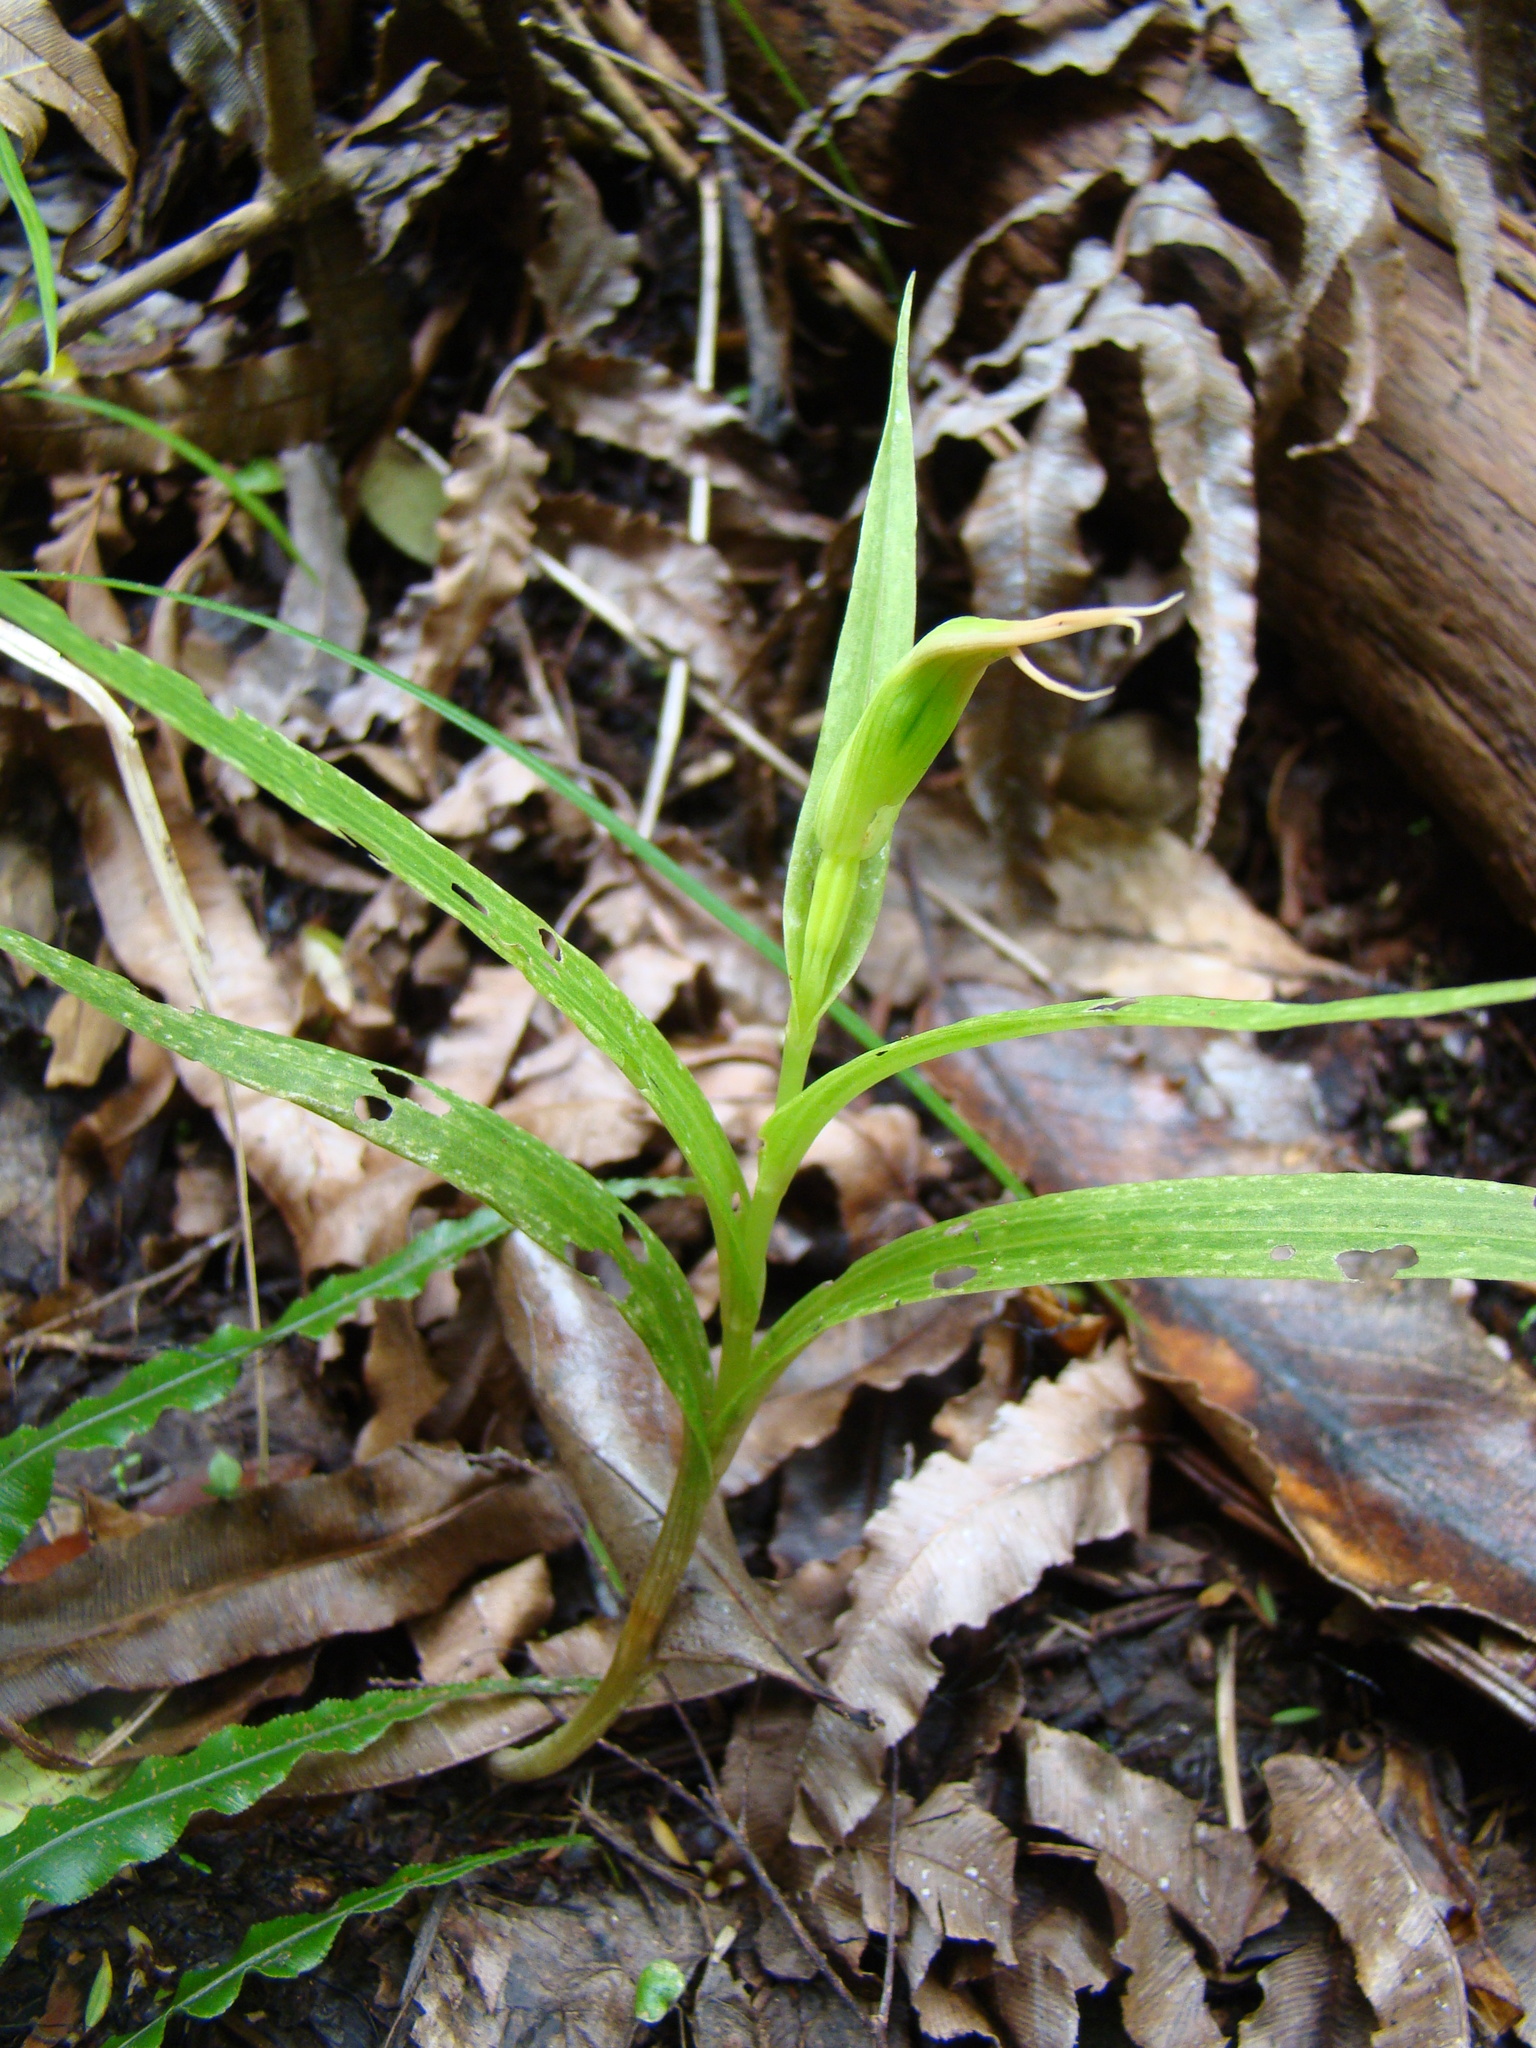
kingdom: Plantae
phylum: Tracheophyta
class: Liliopsida
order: Asparagales
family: Orchidaceae
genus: Pterostylis
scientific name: Pterostylis banksii
